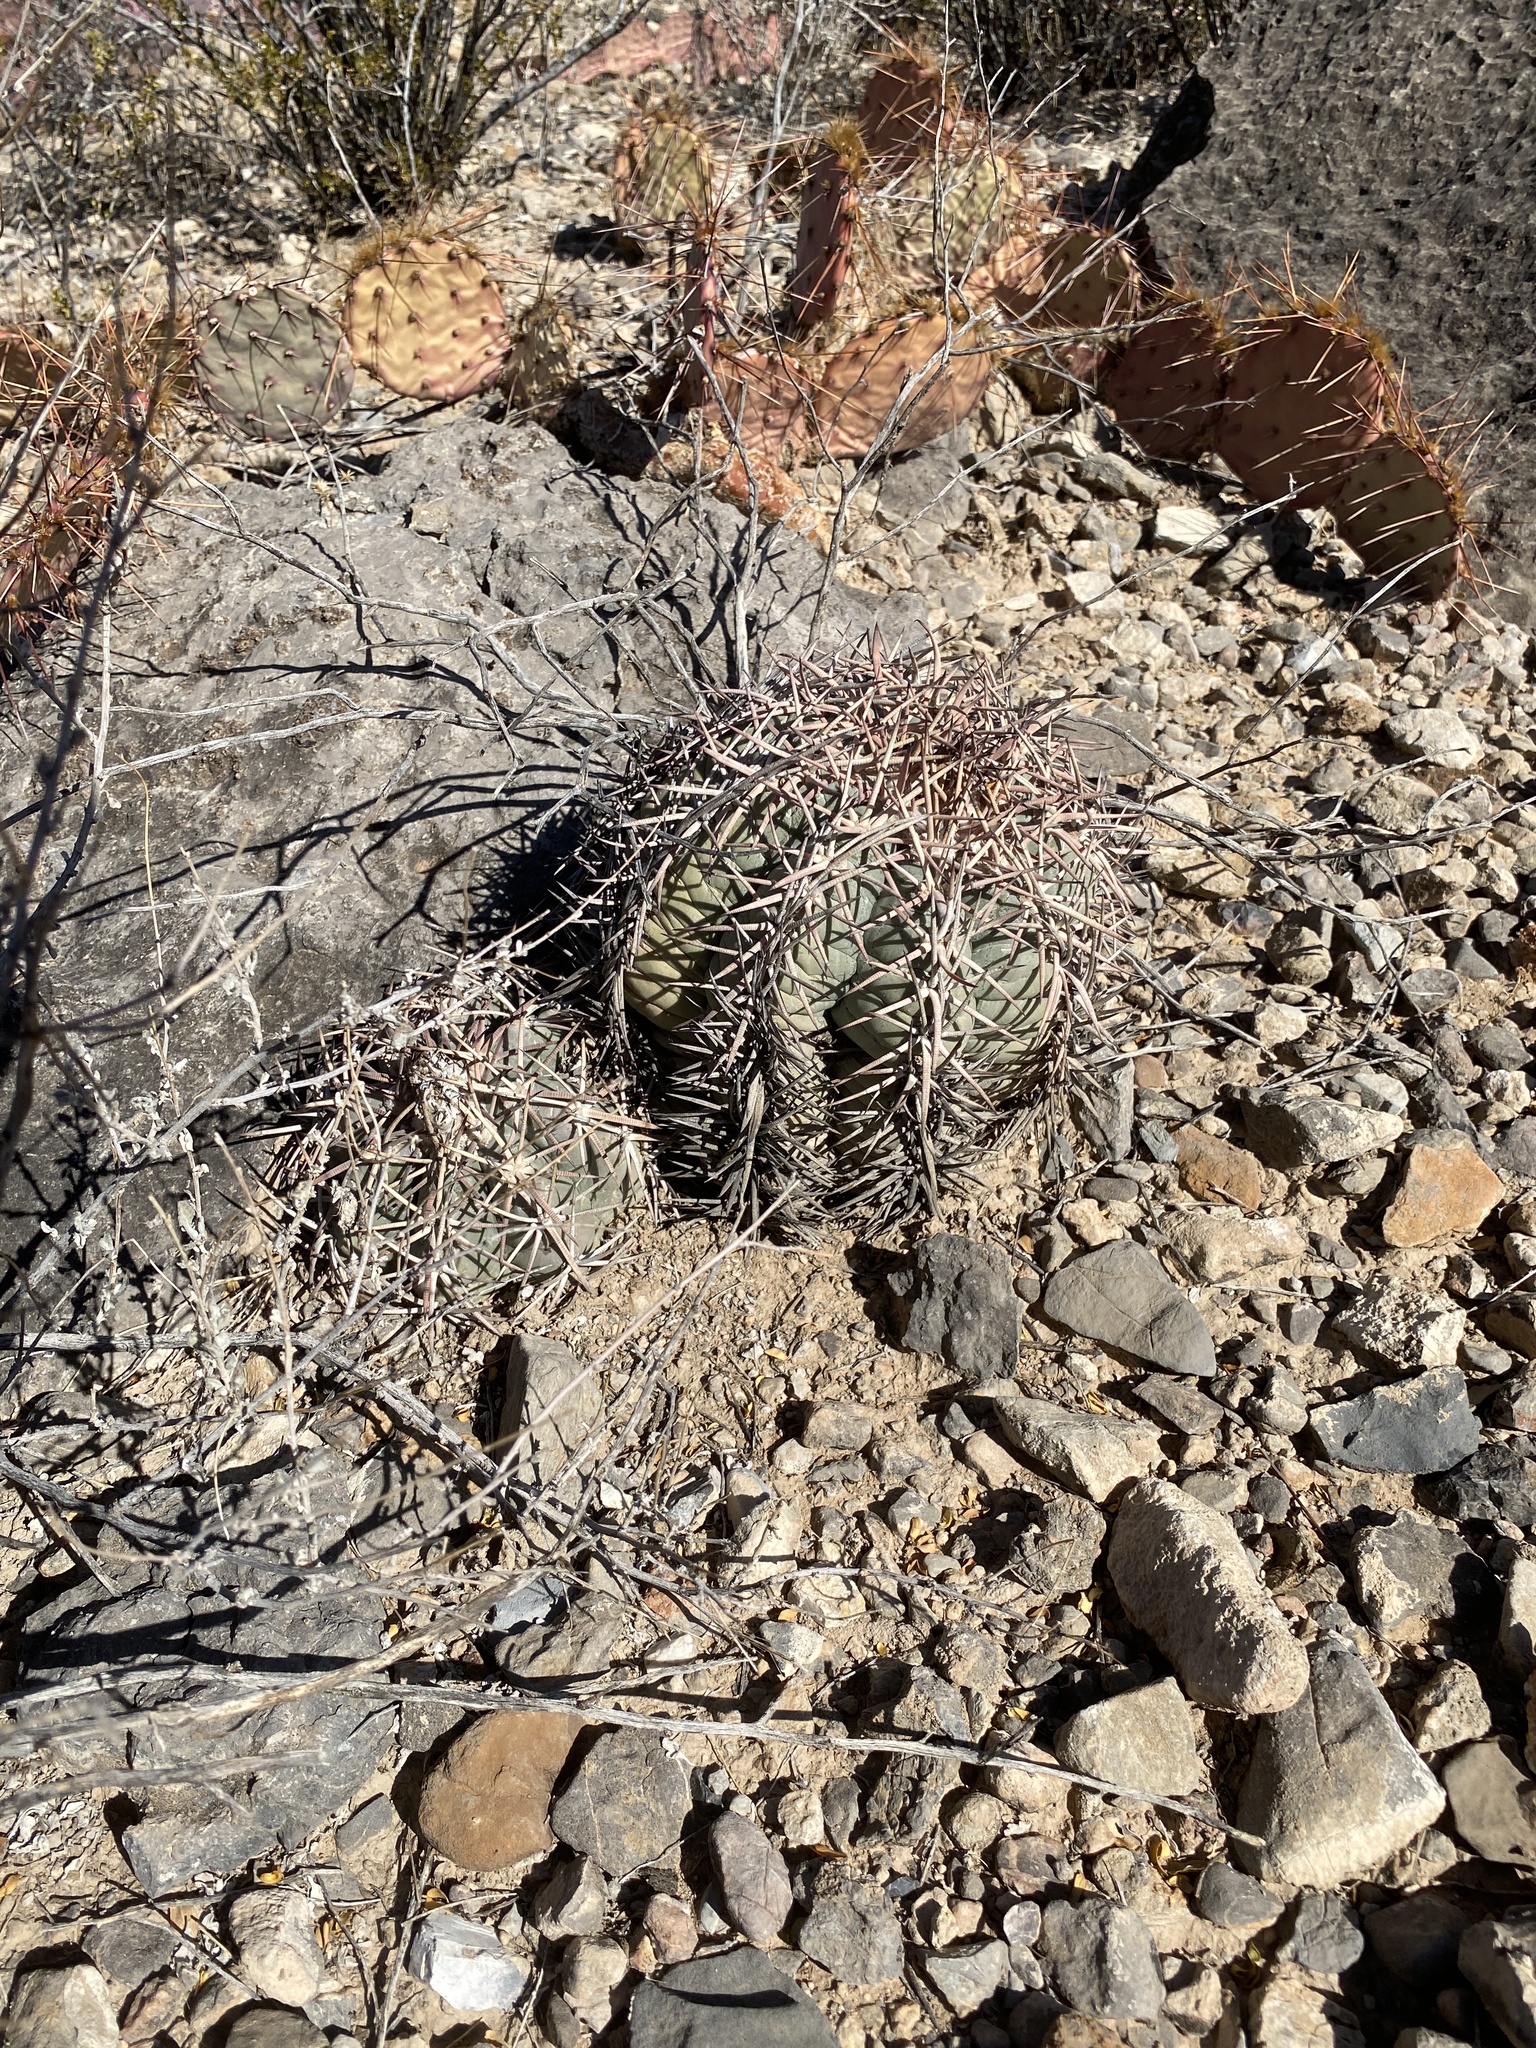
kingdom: Plantae
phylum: Tracheophyta
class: Magnoliopsida
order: Caryophyllales
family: Cactaceae
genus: Echinocactus
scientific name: Echinocactus horizonthalonius
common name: Devilshead
